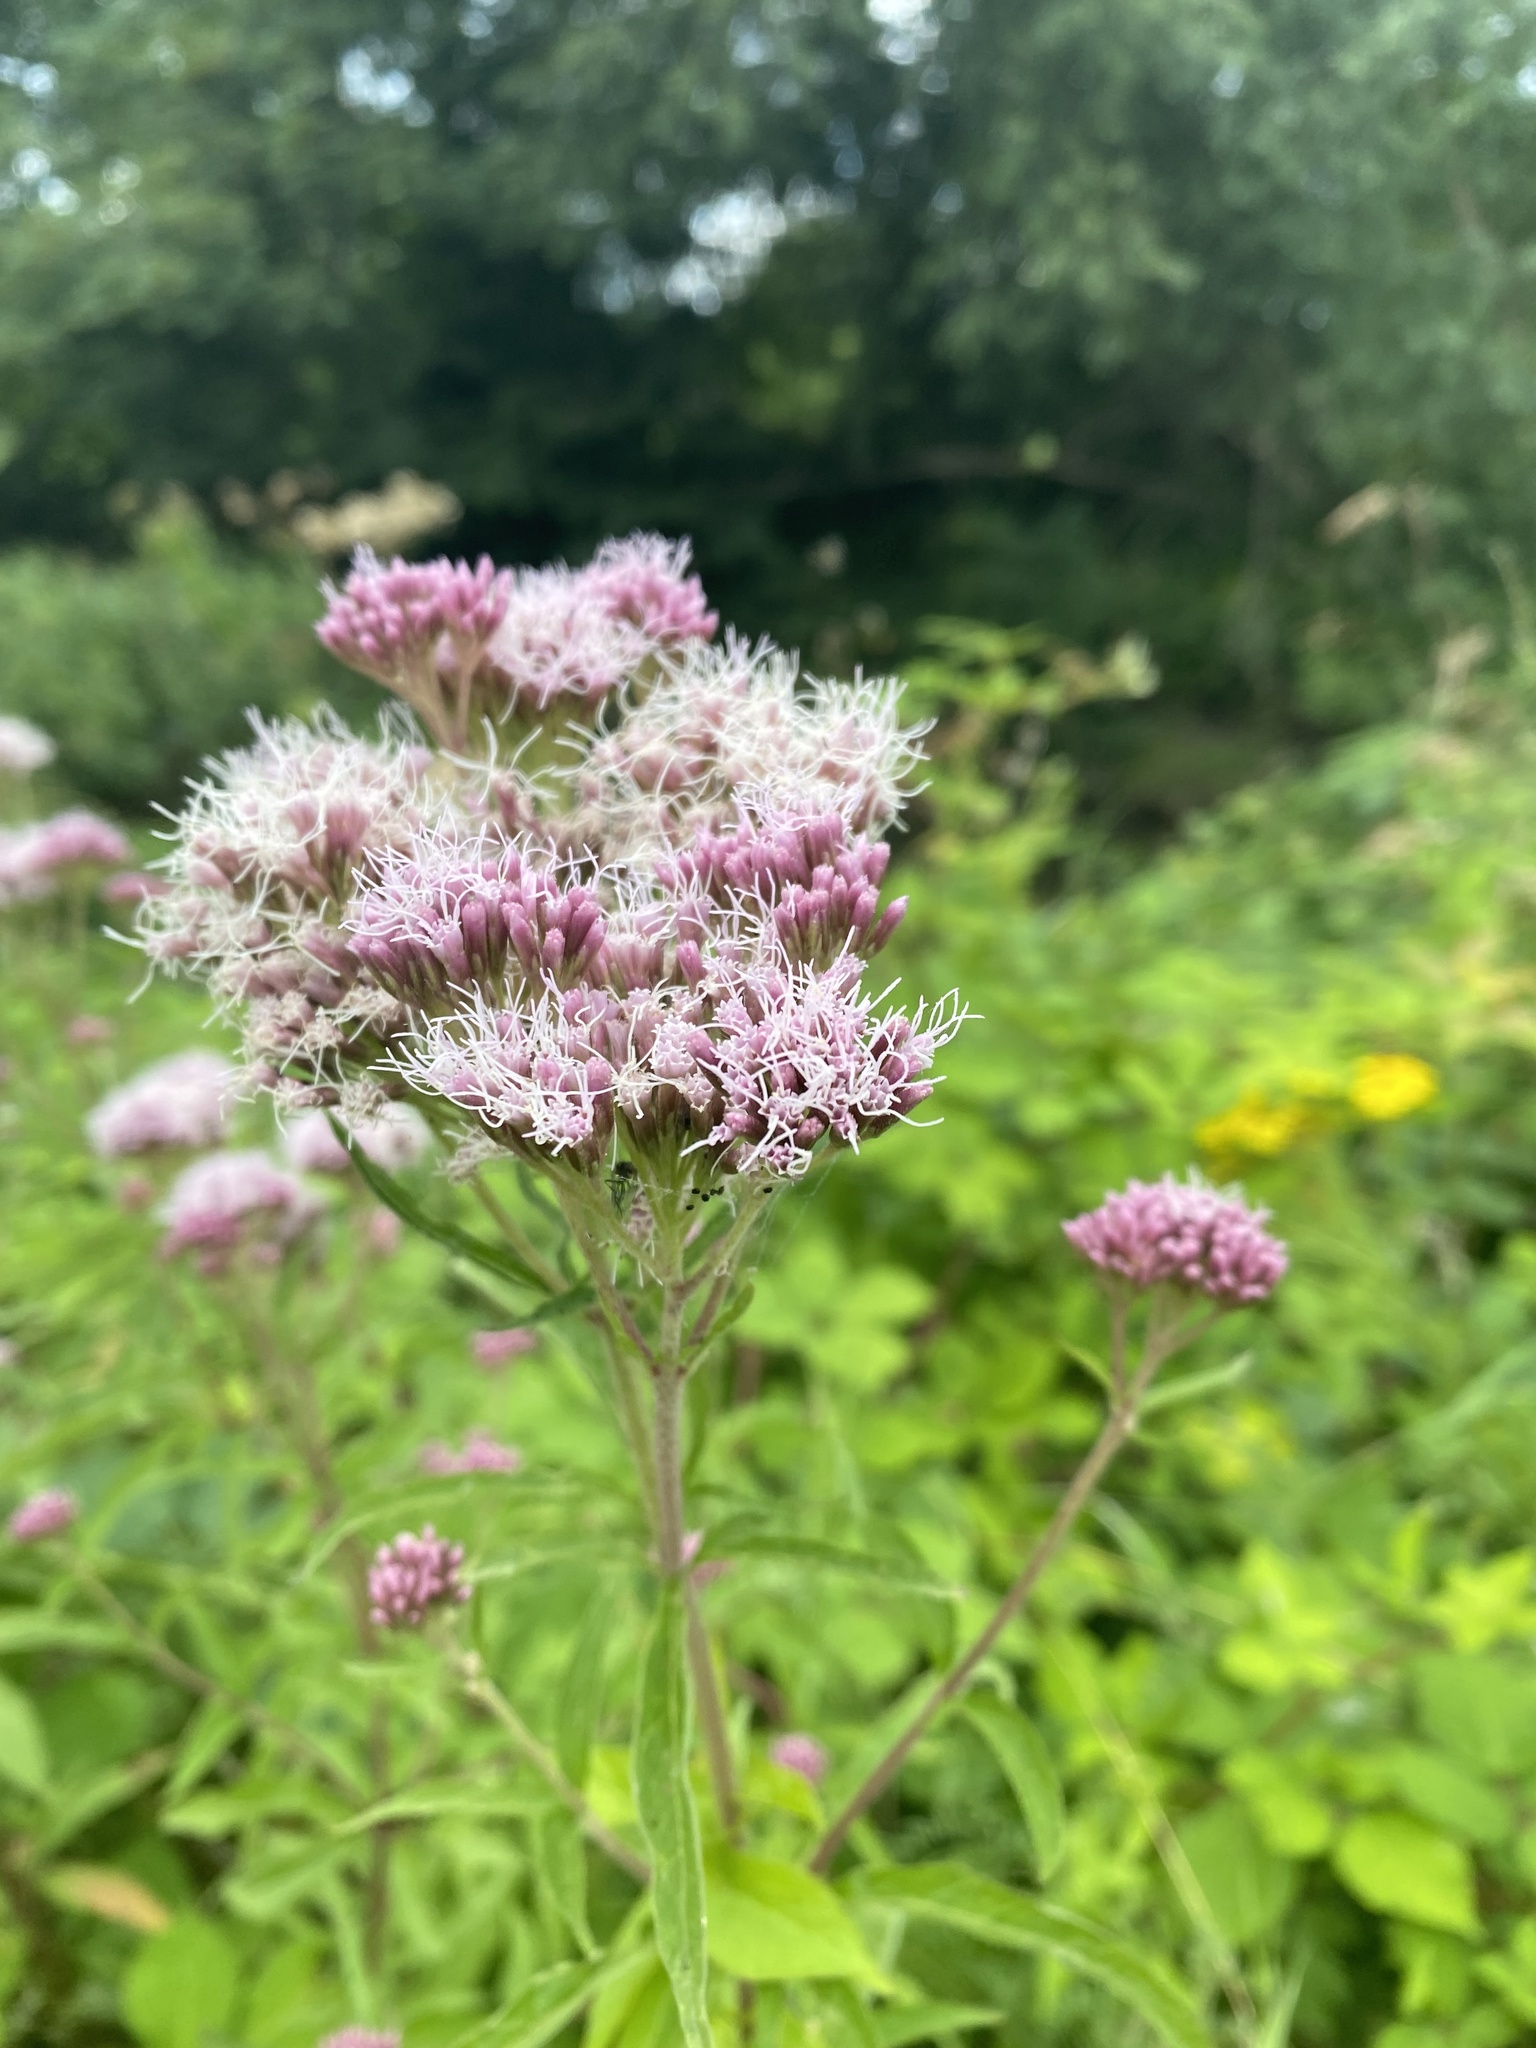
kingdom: Plantae
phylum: Tracheophyta
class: Magnoliopsida
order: Asterales
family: Asteraceae
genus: Eupatorium
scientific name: Eupatorium cannabinum
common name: Hemp-agrimony
